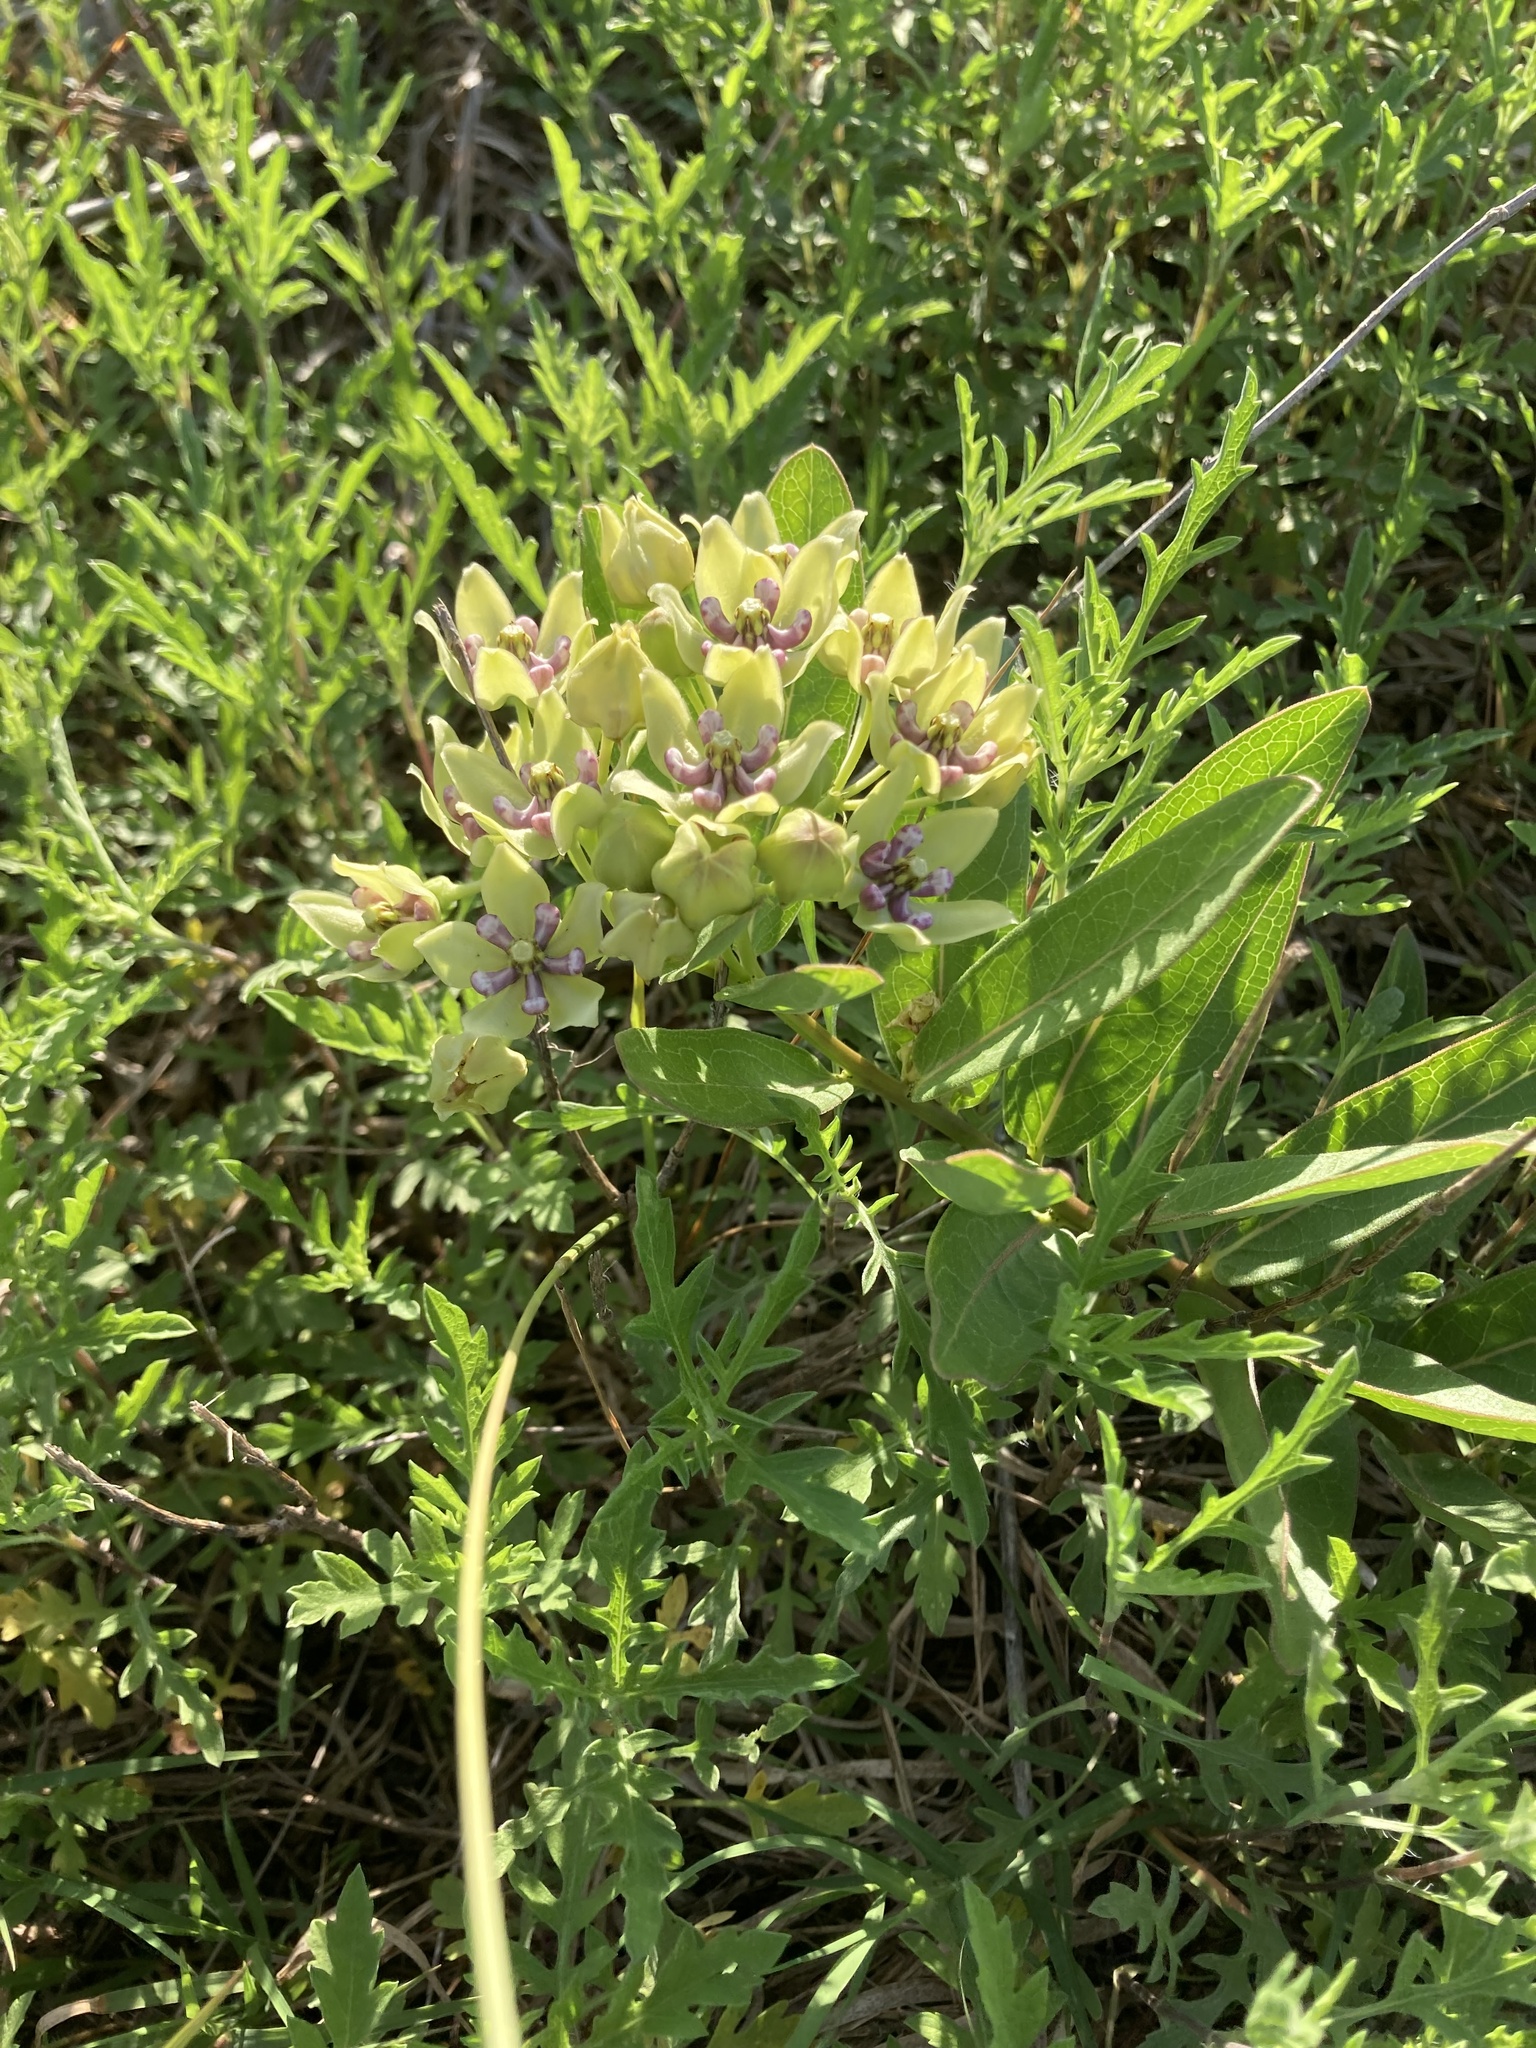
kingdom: Plantae
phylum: Tracheophyta
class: Magnoliopsida
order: Gentianales
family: Apocynaceae
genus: Asclepias
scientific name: Asclepias viridis
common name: Antelope-horns
